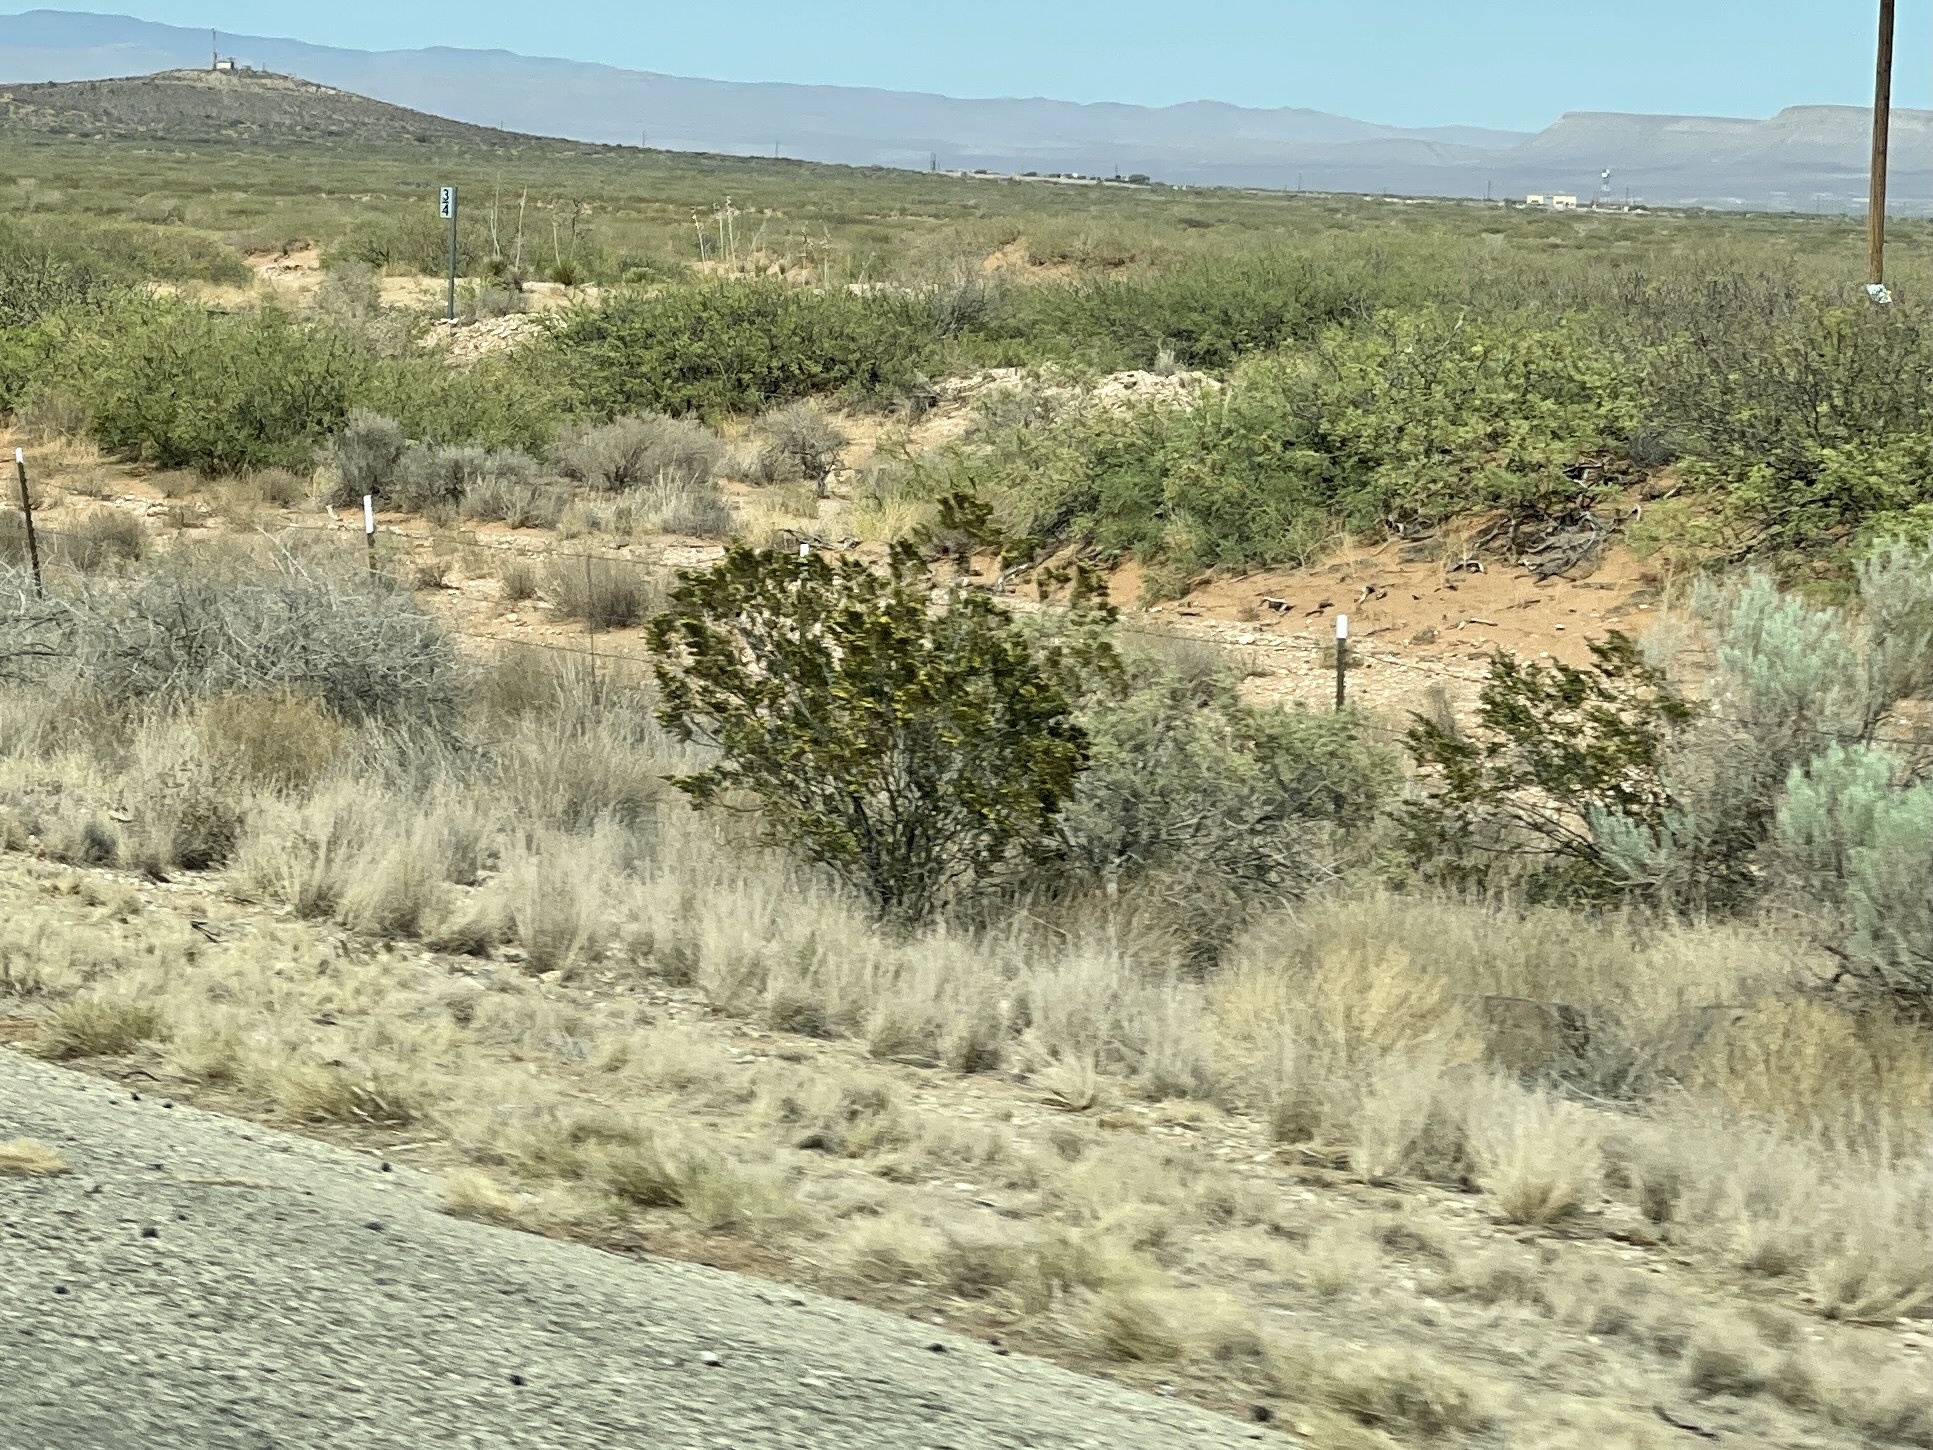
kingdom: Plantae
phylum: Tracheophyta
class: Magnoliopsida
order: Zygophyllales
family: Zygophyllaceae
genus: Larrea
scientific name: Larrea tridentata
